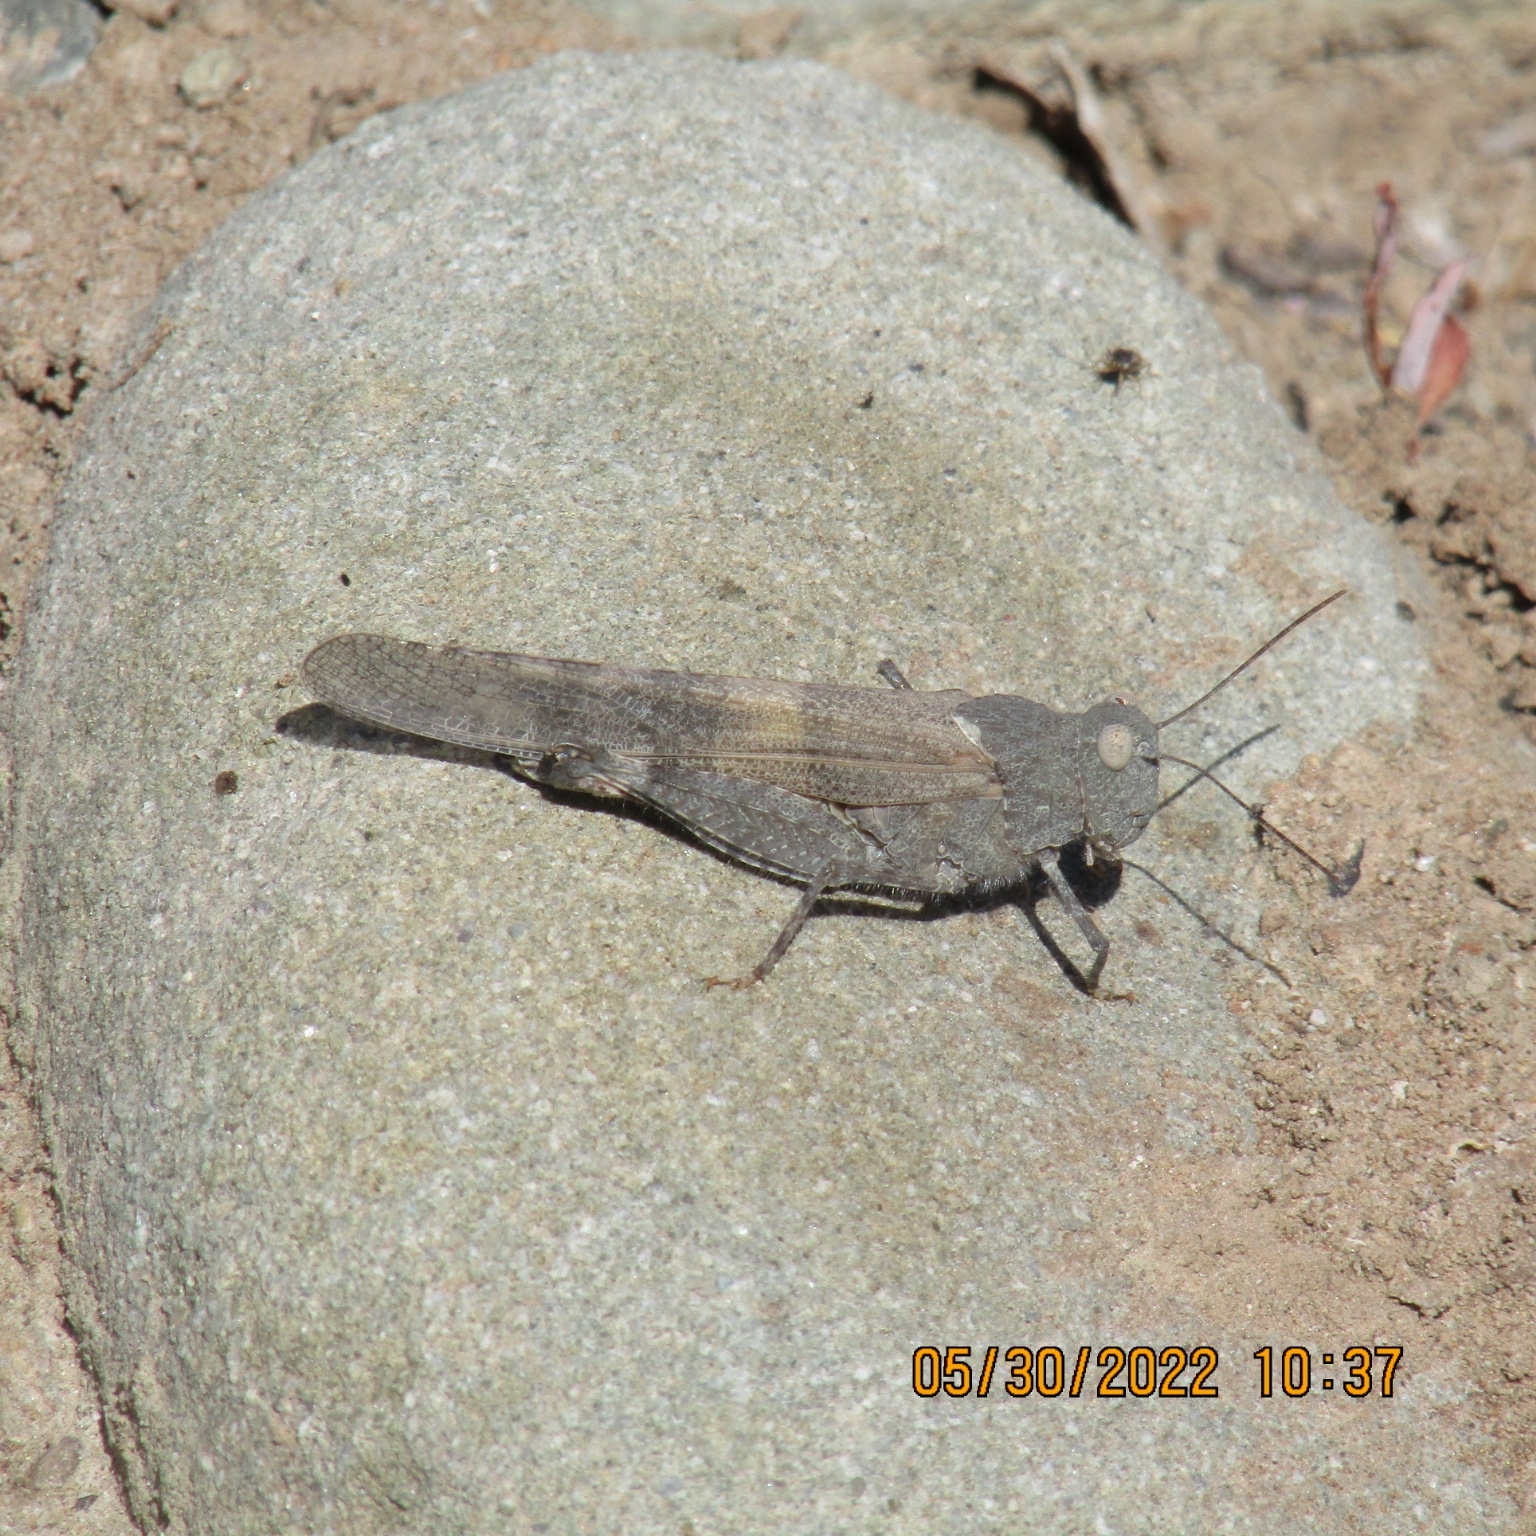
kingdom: Animalia
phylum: Arthropoda
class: Insecta
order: Orthoptera
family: Acrididae
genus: Trimerotropis
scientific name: Trimerotropis pallidipennis
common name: Pallid-winged grasshopper
